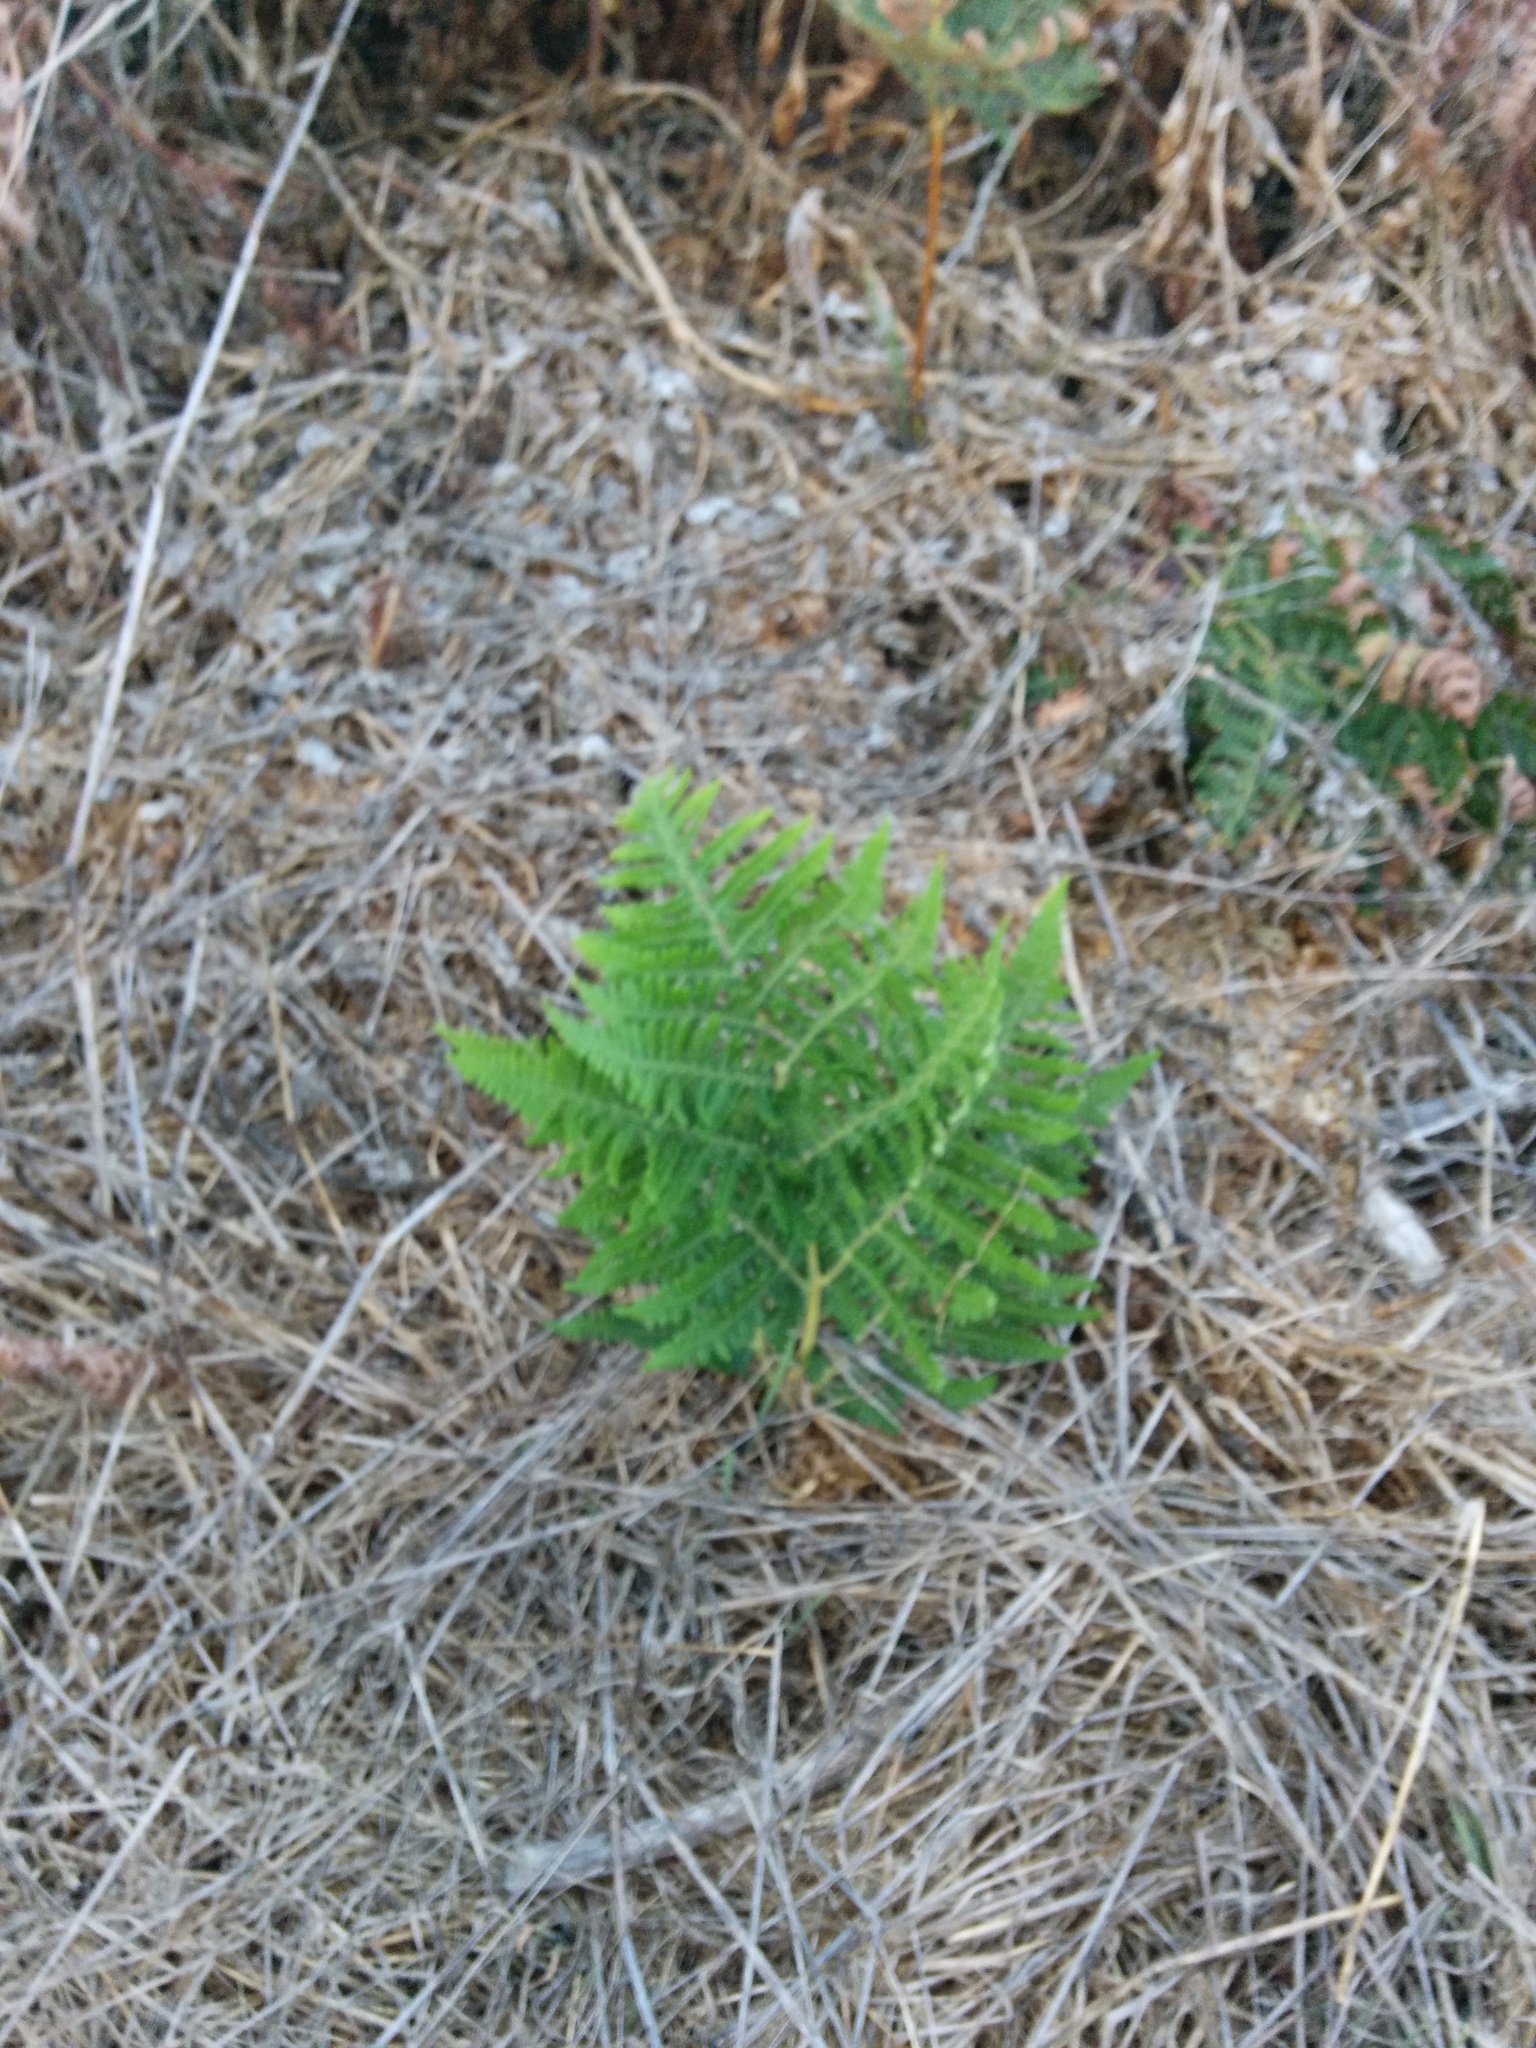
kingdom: Plantae
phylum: Tracheophyta
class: Polypodiopsida
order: Polypodiales
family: Dennstaedtiaceae
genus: Pteridium
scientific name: Pteridium aquilinum
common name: Bracken
